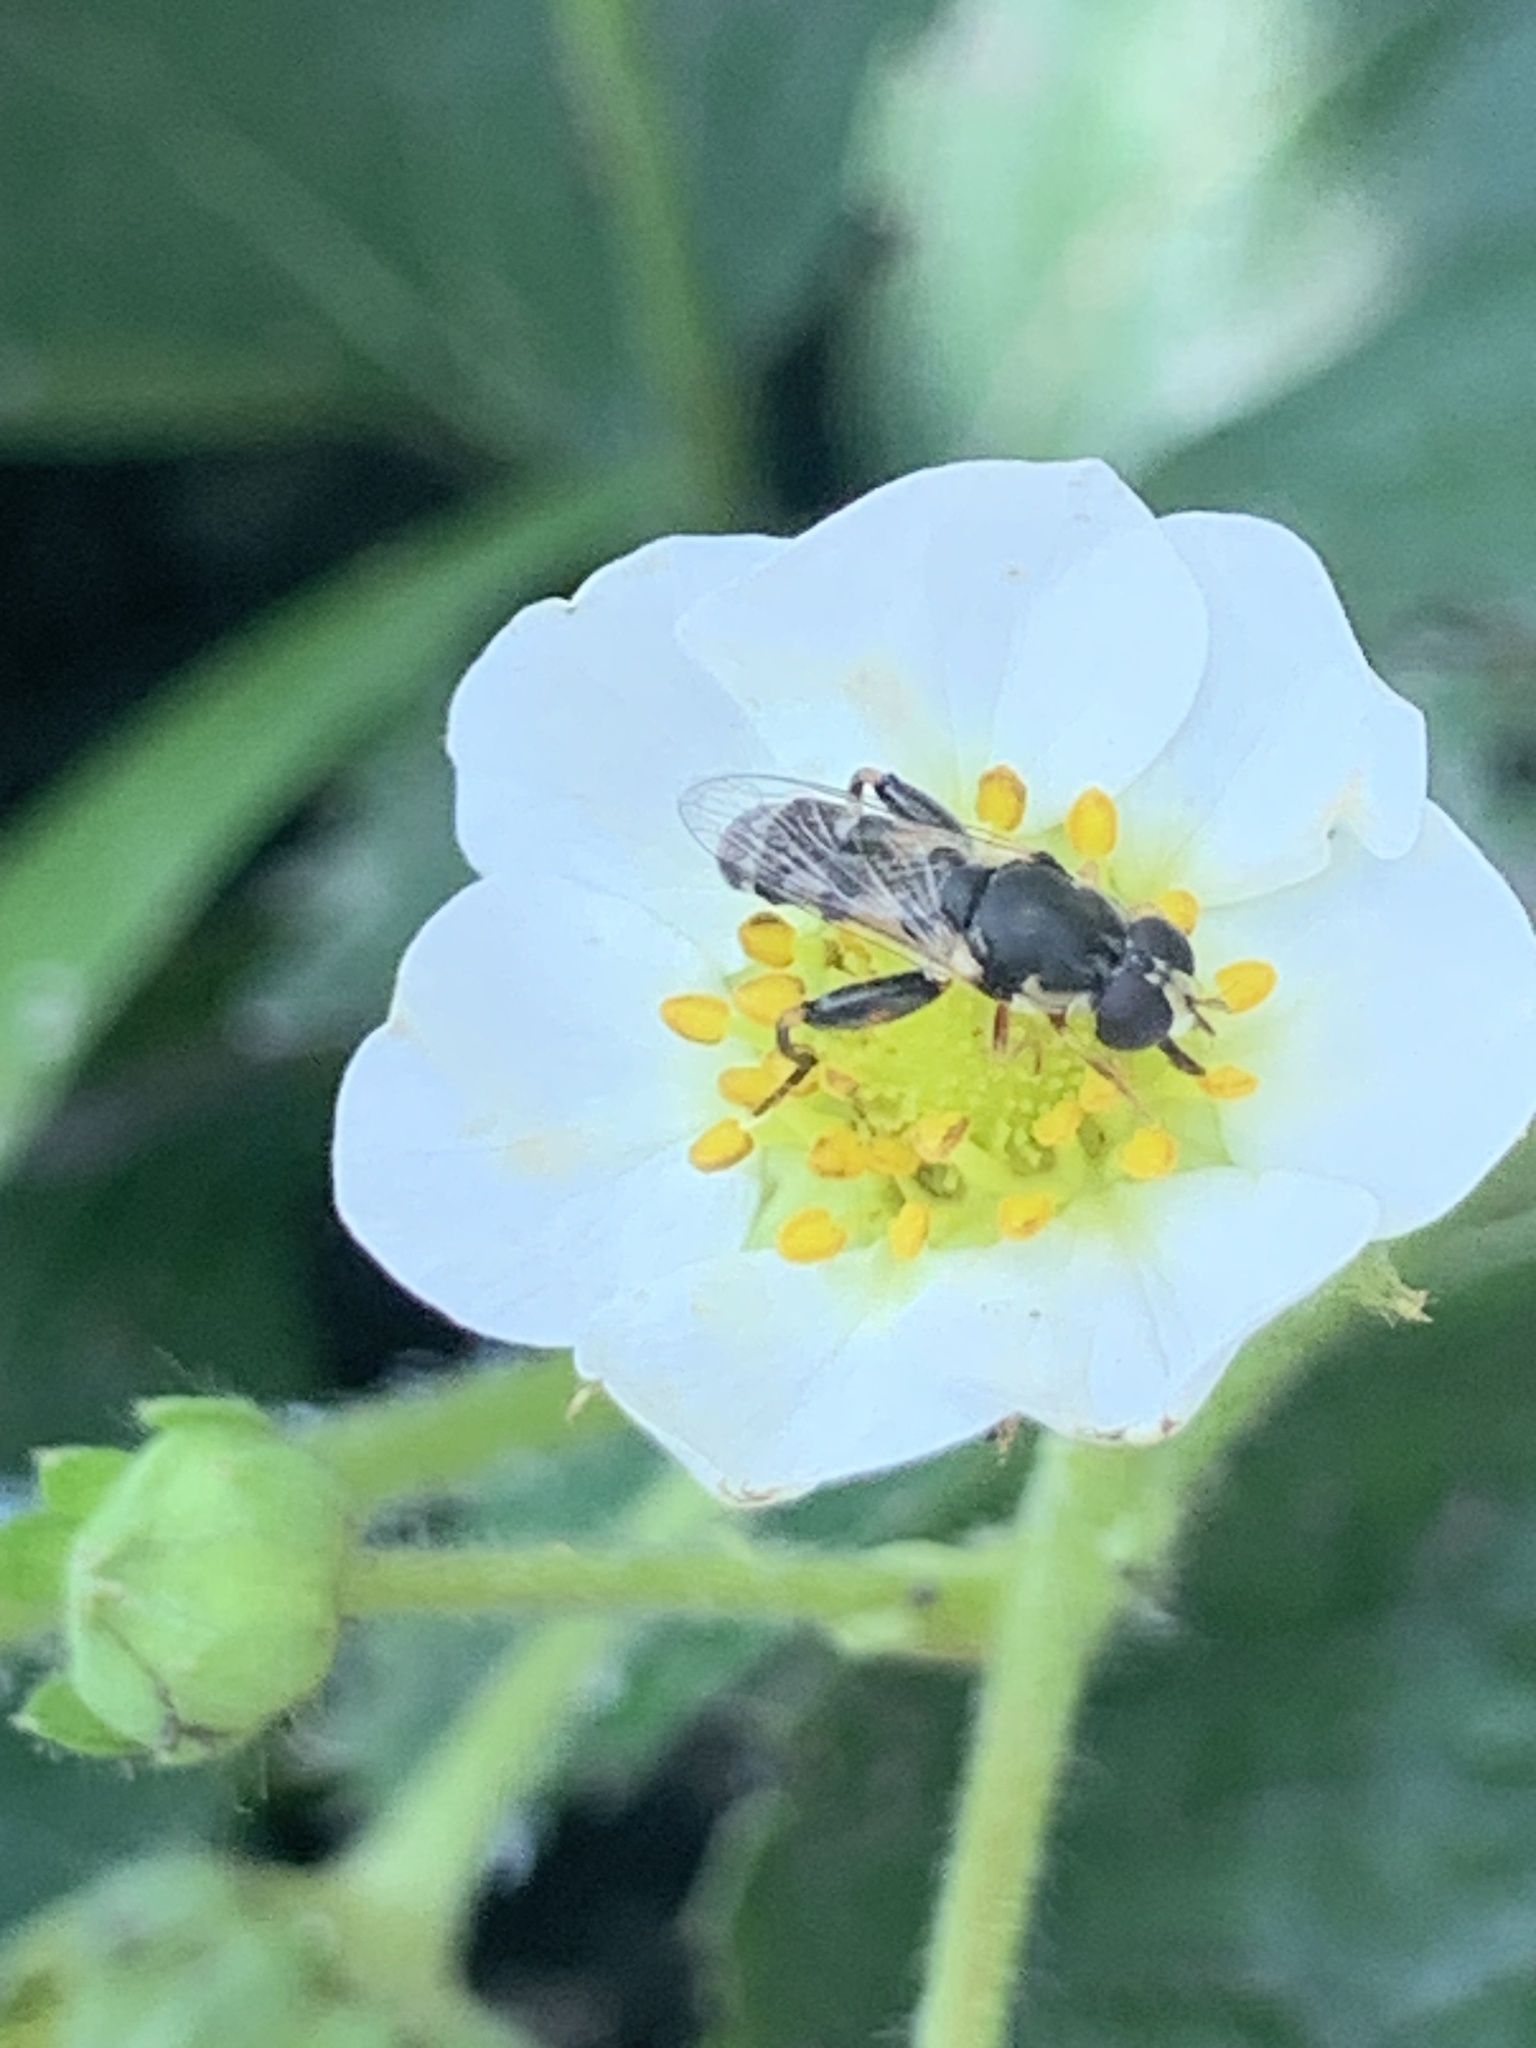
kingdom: Animalia
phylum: Arthropoda
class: Insecta
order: Diptera
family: Syrphidae
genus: Syritta
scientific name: Syritta pipiens
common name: Hover fly
